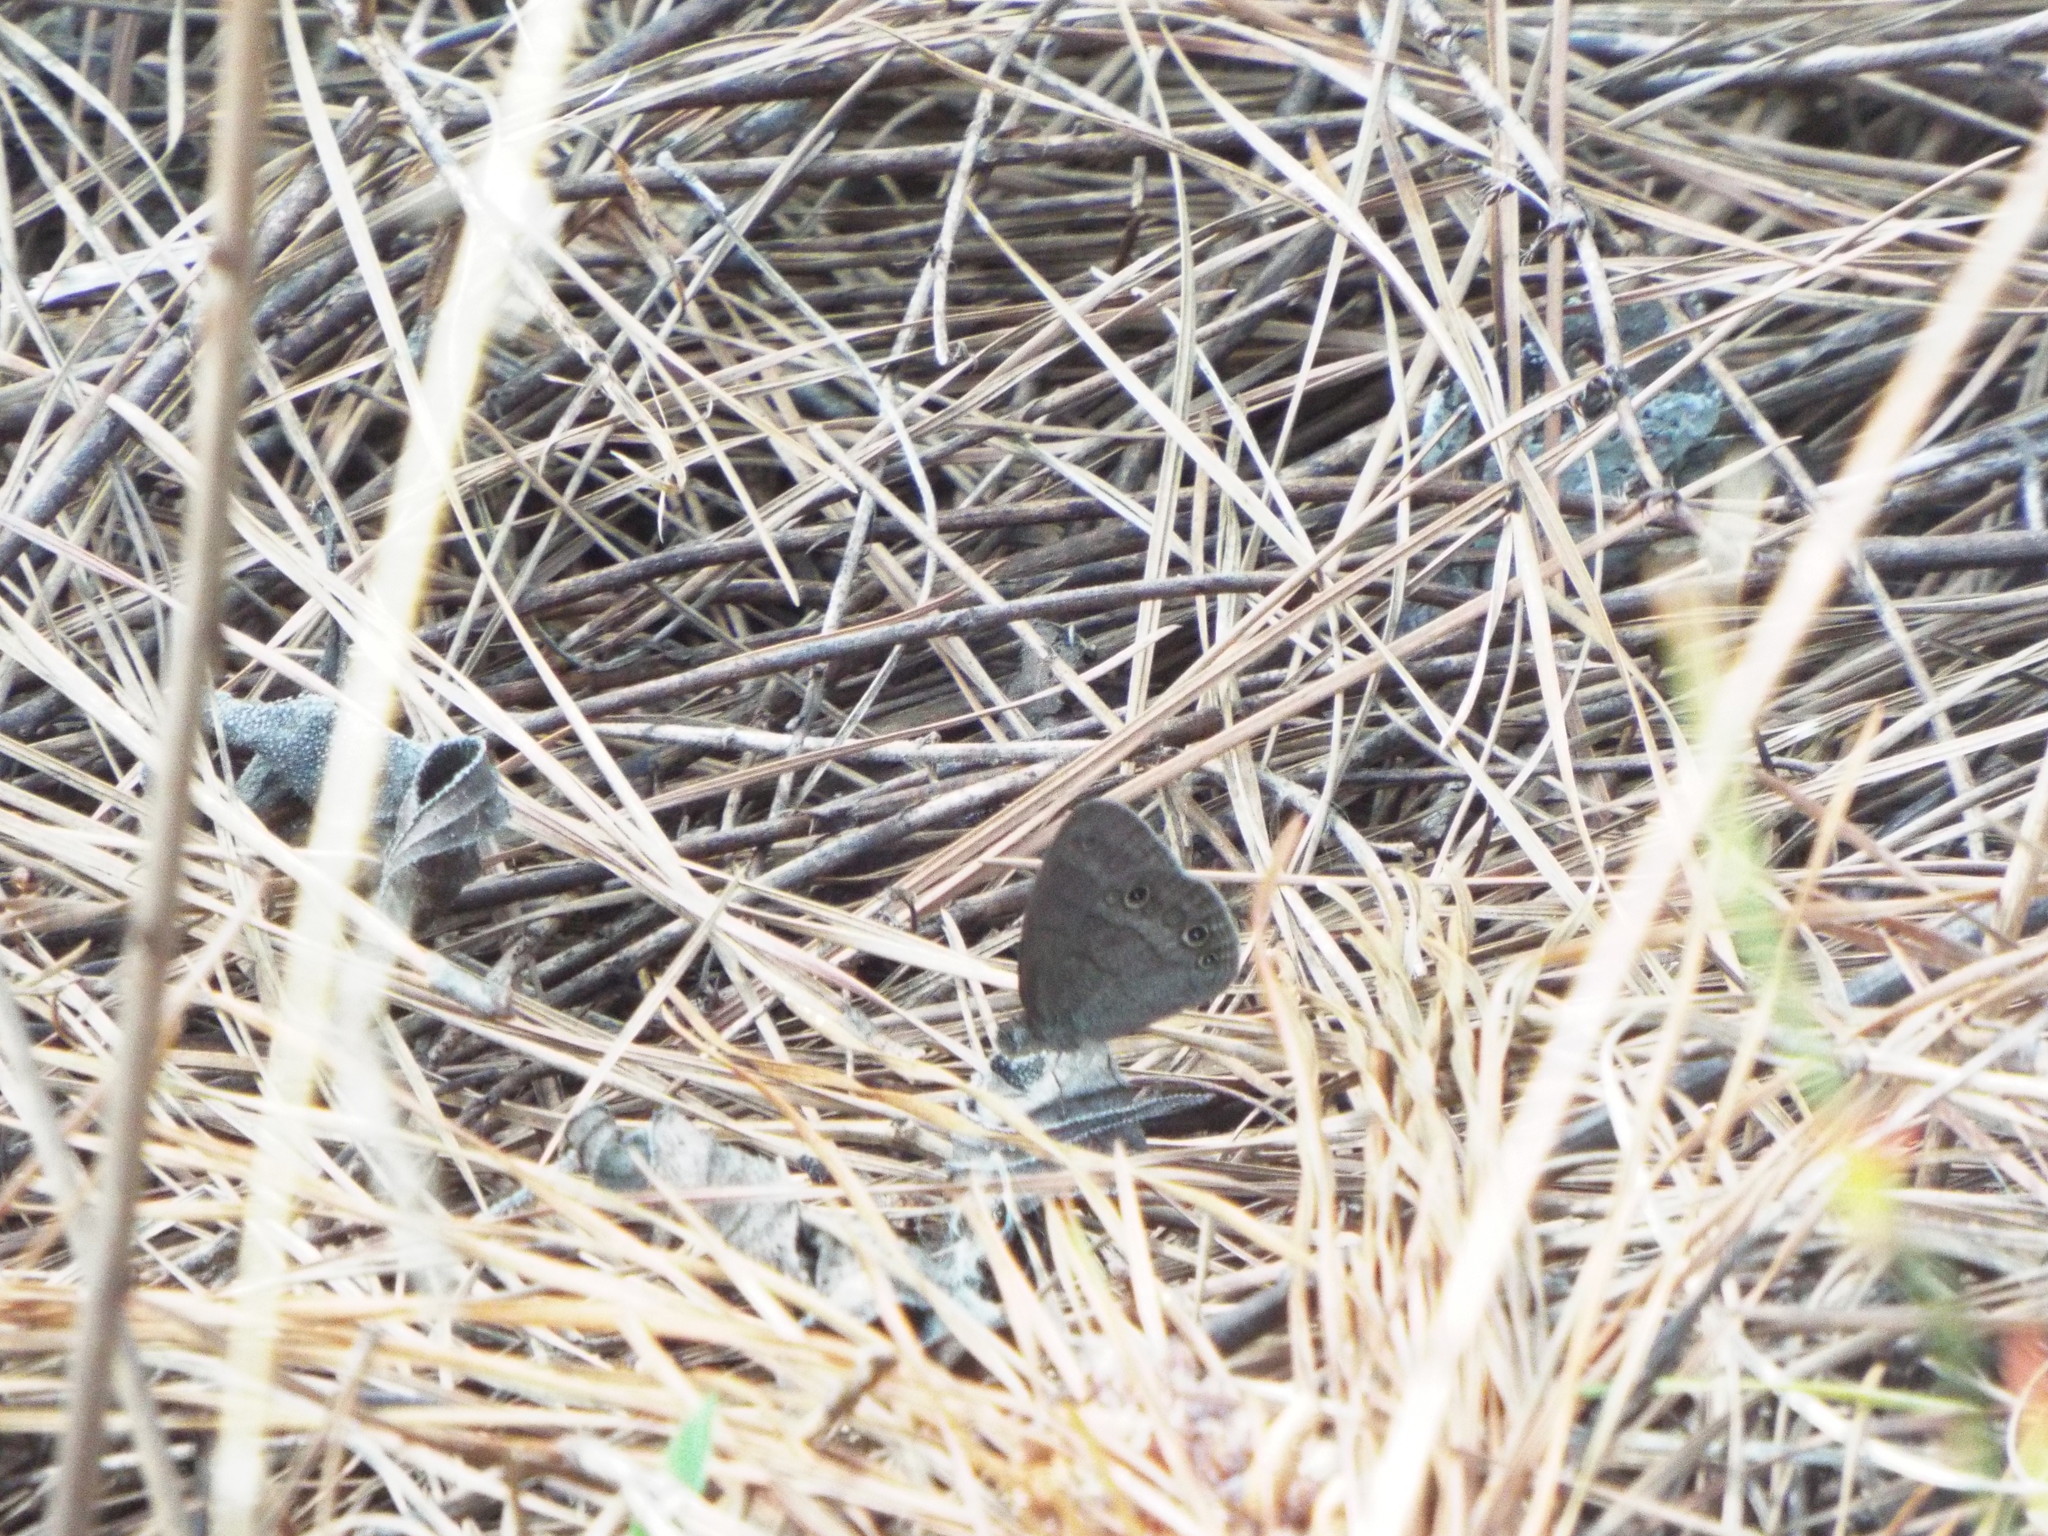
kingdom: Animalia
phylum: Arthropoda
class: Insecta
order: Lepidoptera
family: Nymphalidae
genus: Hermeuptychia
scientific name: Hermeuptychia hermes
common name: Hermes satyr
